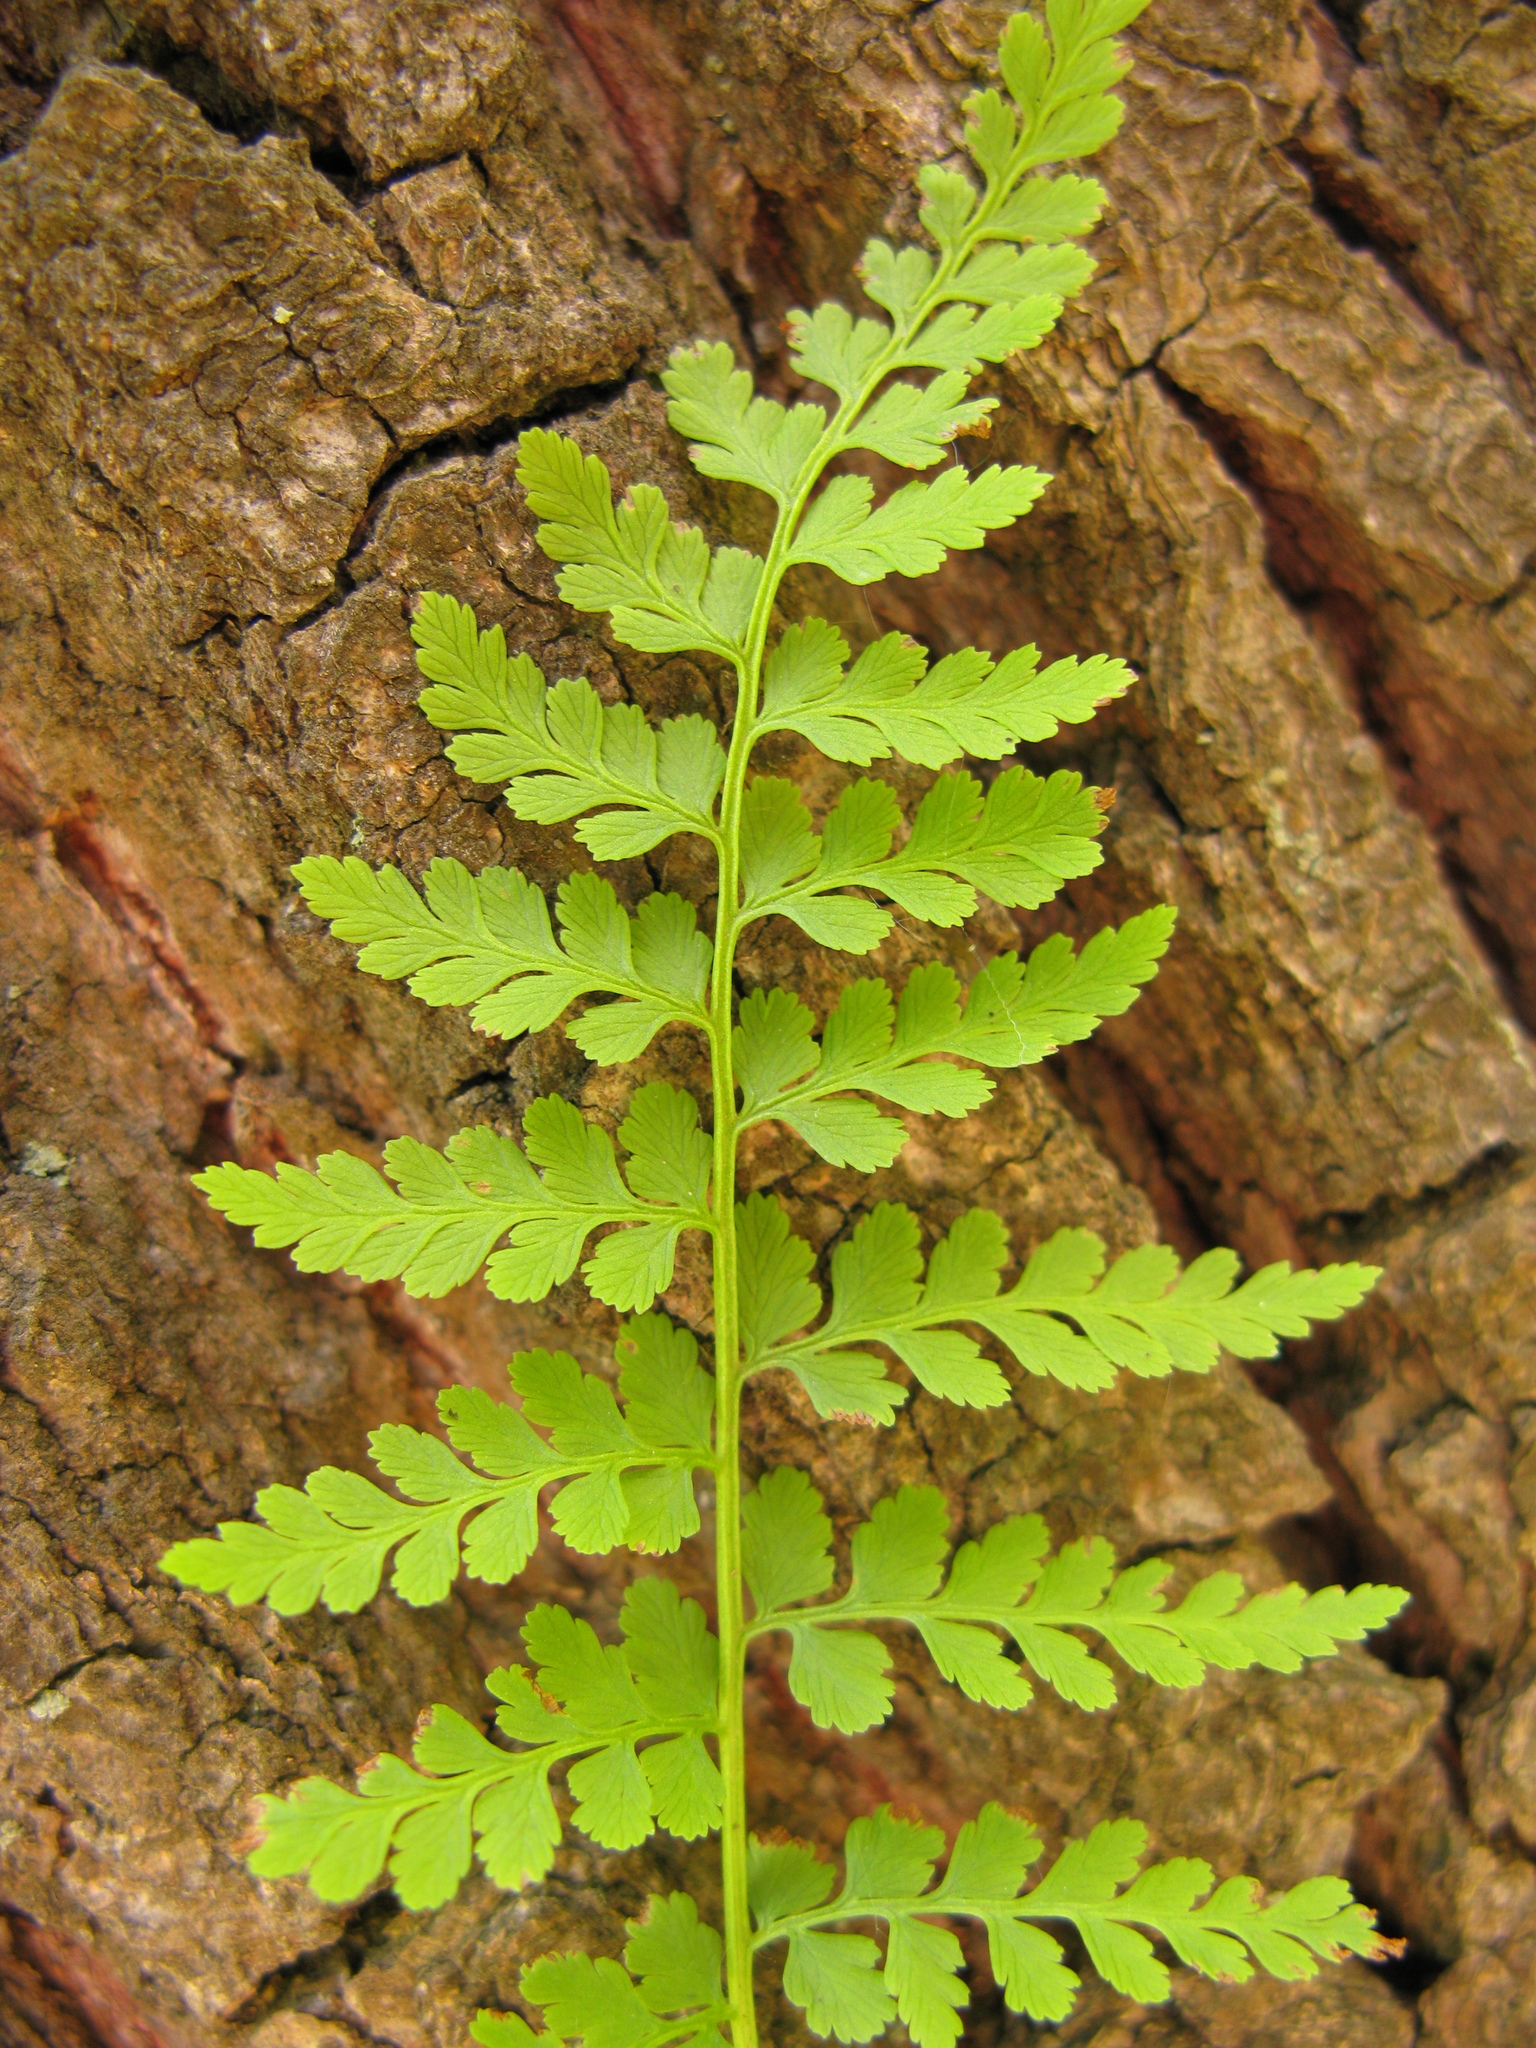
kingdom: Plantae
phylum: Tracheophyta
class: Polypodiopsida
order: Polypodiales
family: Cystopteridaceae
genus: Cystopteris
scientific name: Cystopteris fragilis
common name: Brittle bladder fern
